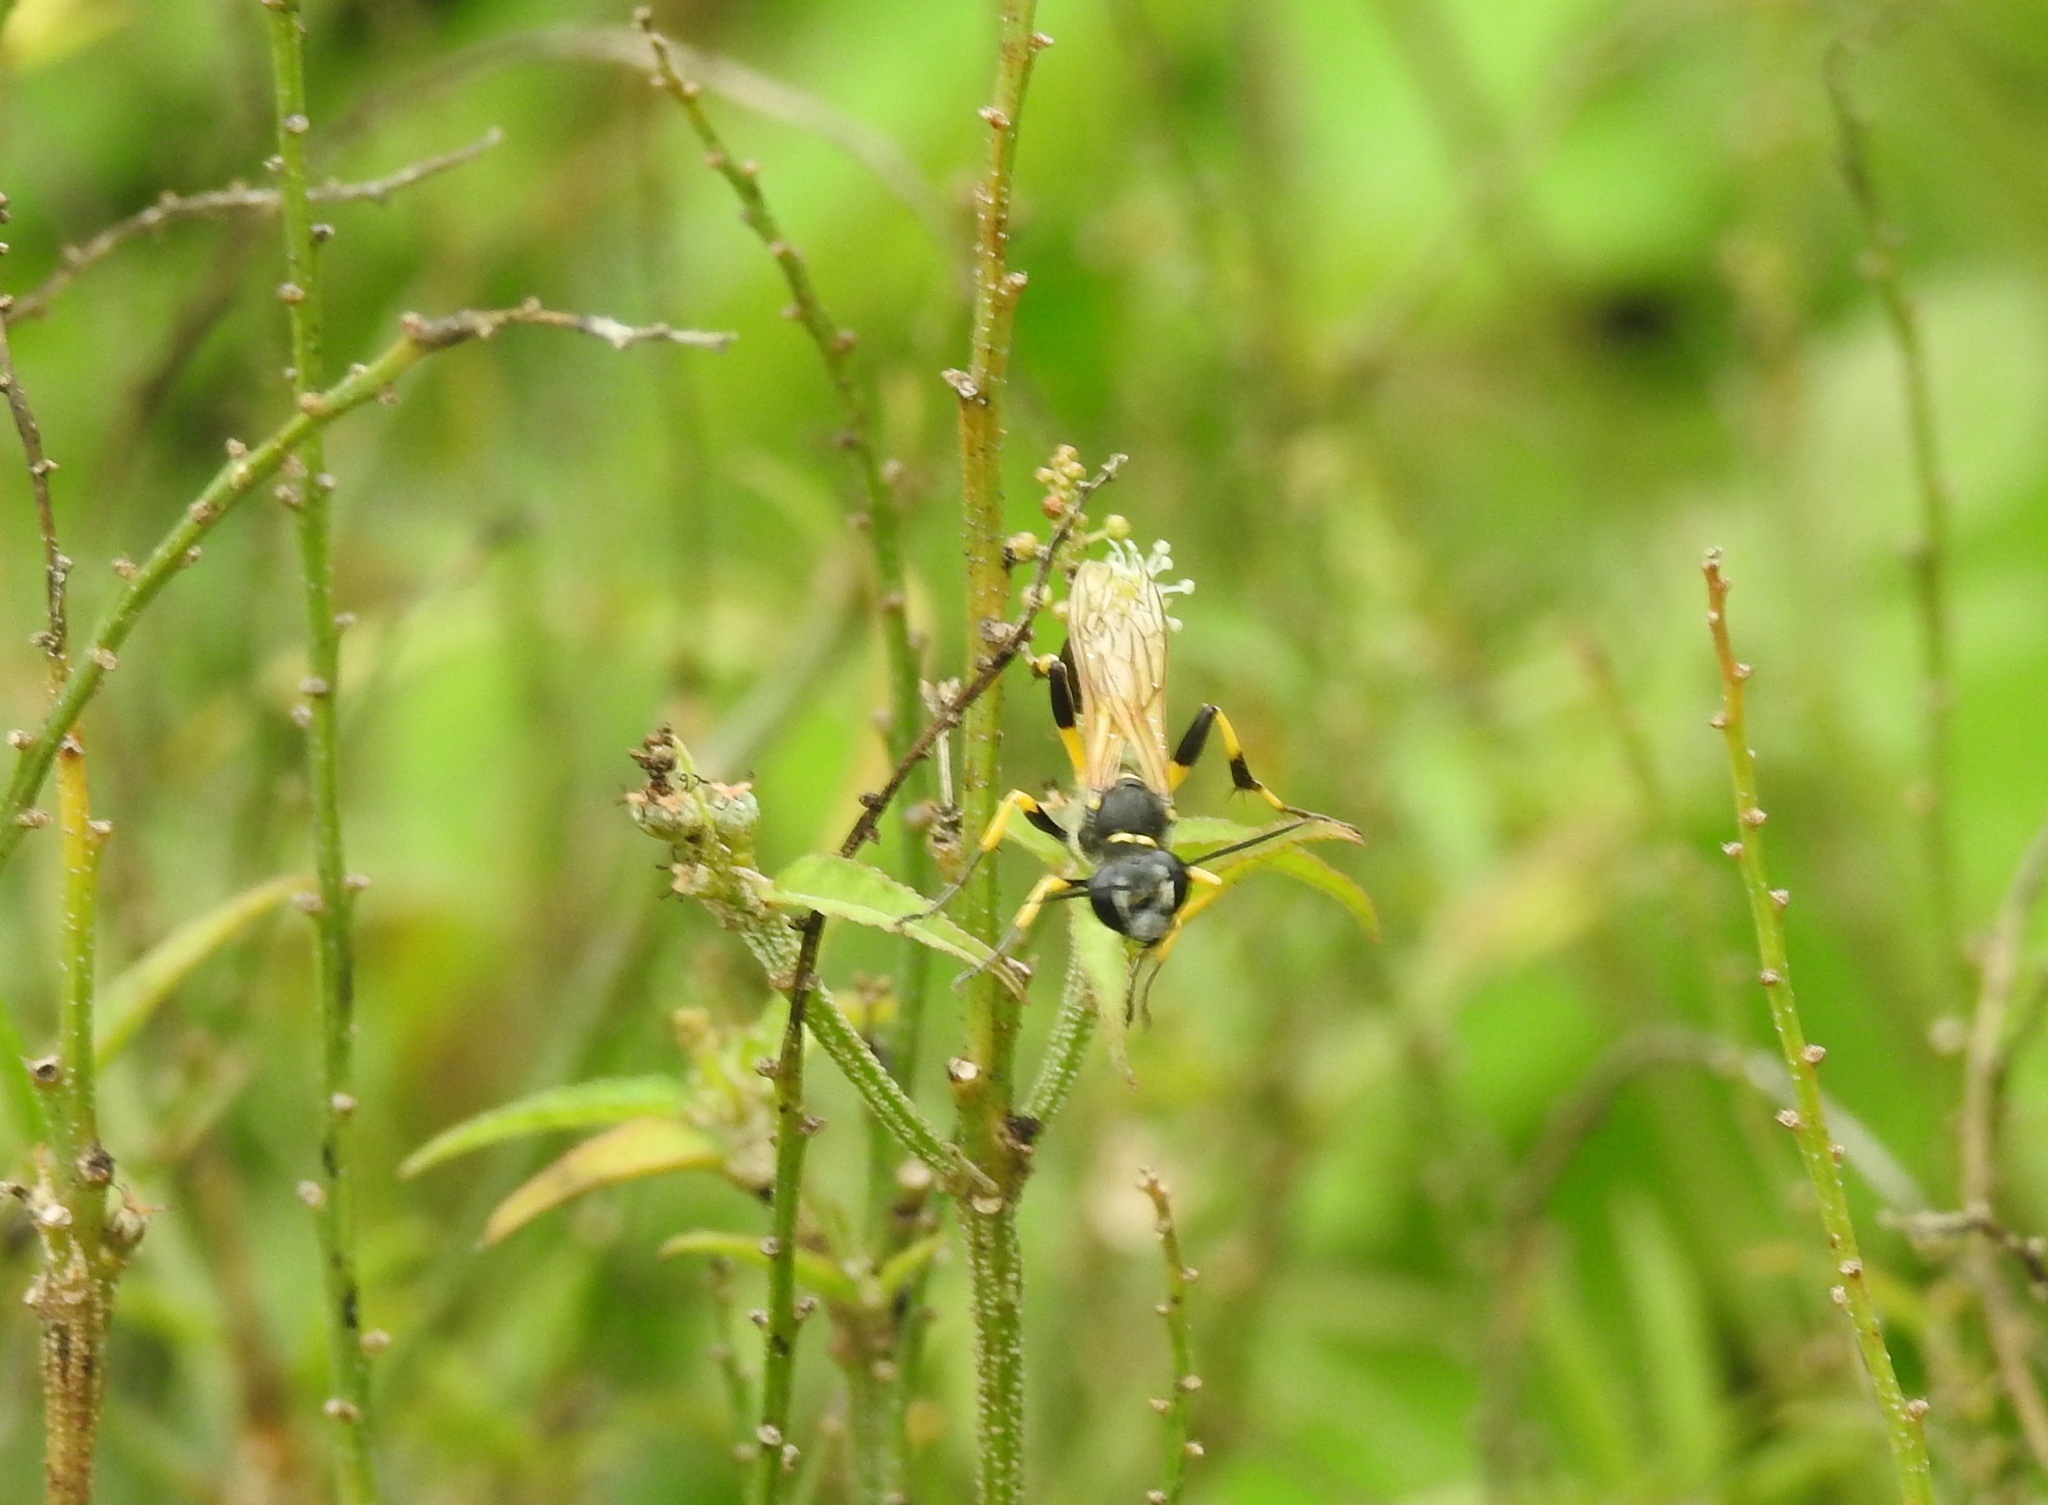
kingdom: Animalia
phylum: Arthropoda
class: Insecta
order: Hymenoptera
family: Sphecidae
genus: Sceliphron
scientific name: Sceliphron madraspatanum
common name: Mud dauber
